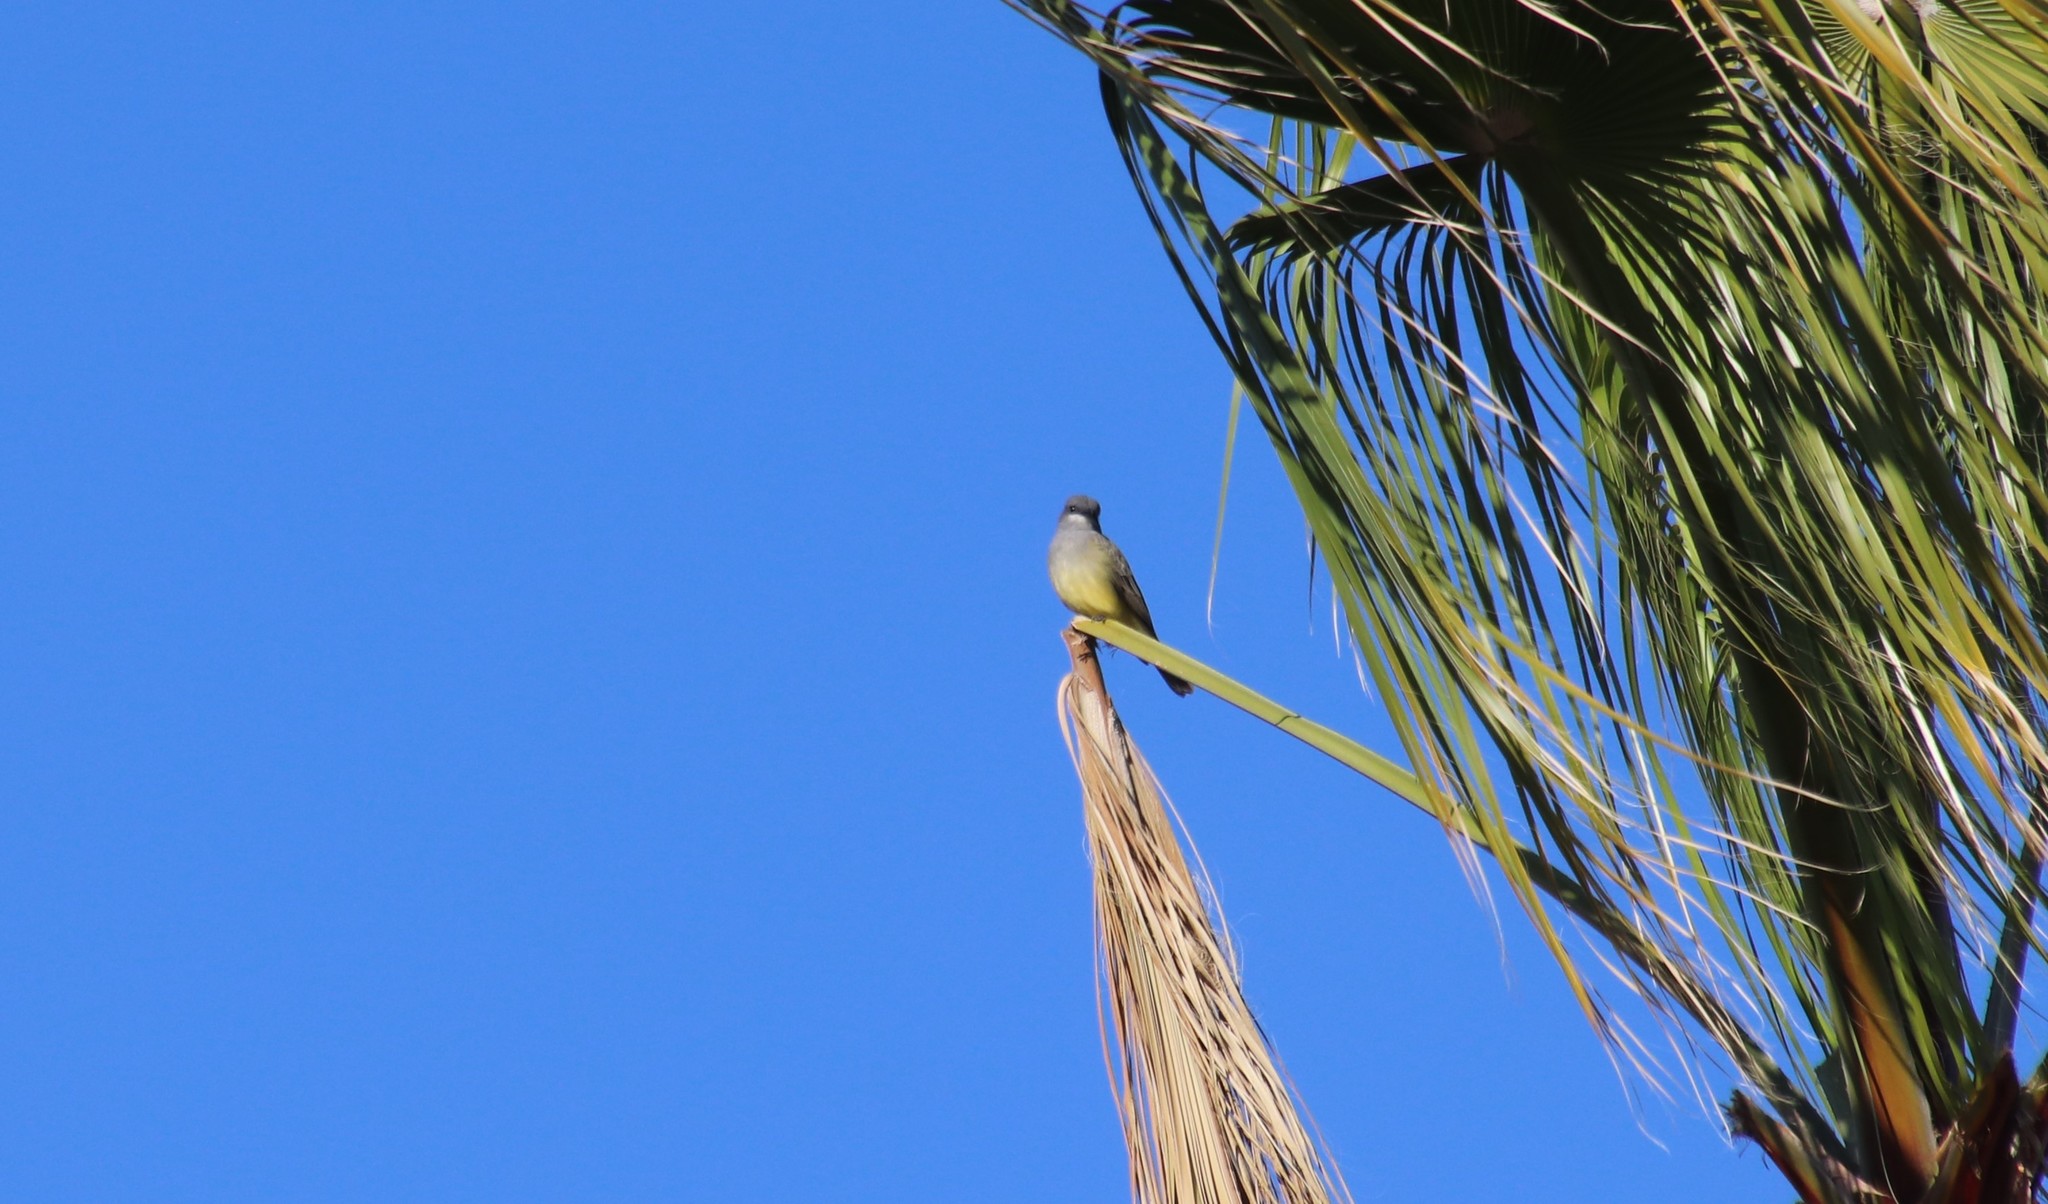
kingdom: Animalia
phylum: Chordata
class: Aves
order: Passeriformes
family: Tyrannidae
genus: Tyrannus
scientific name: Tyrannus vociferans
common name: Cassin's kingbird
